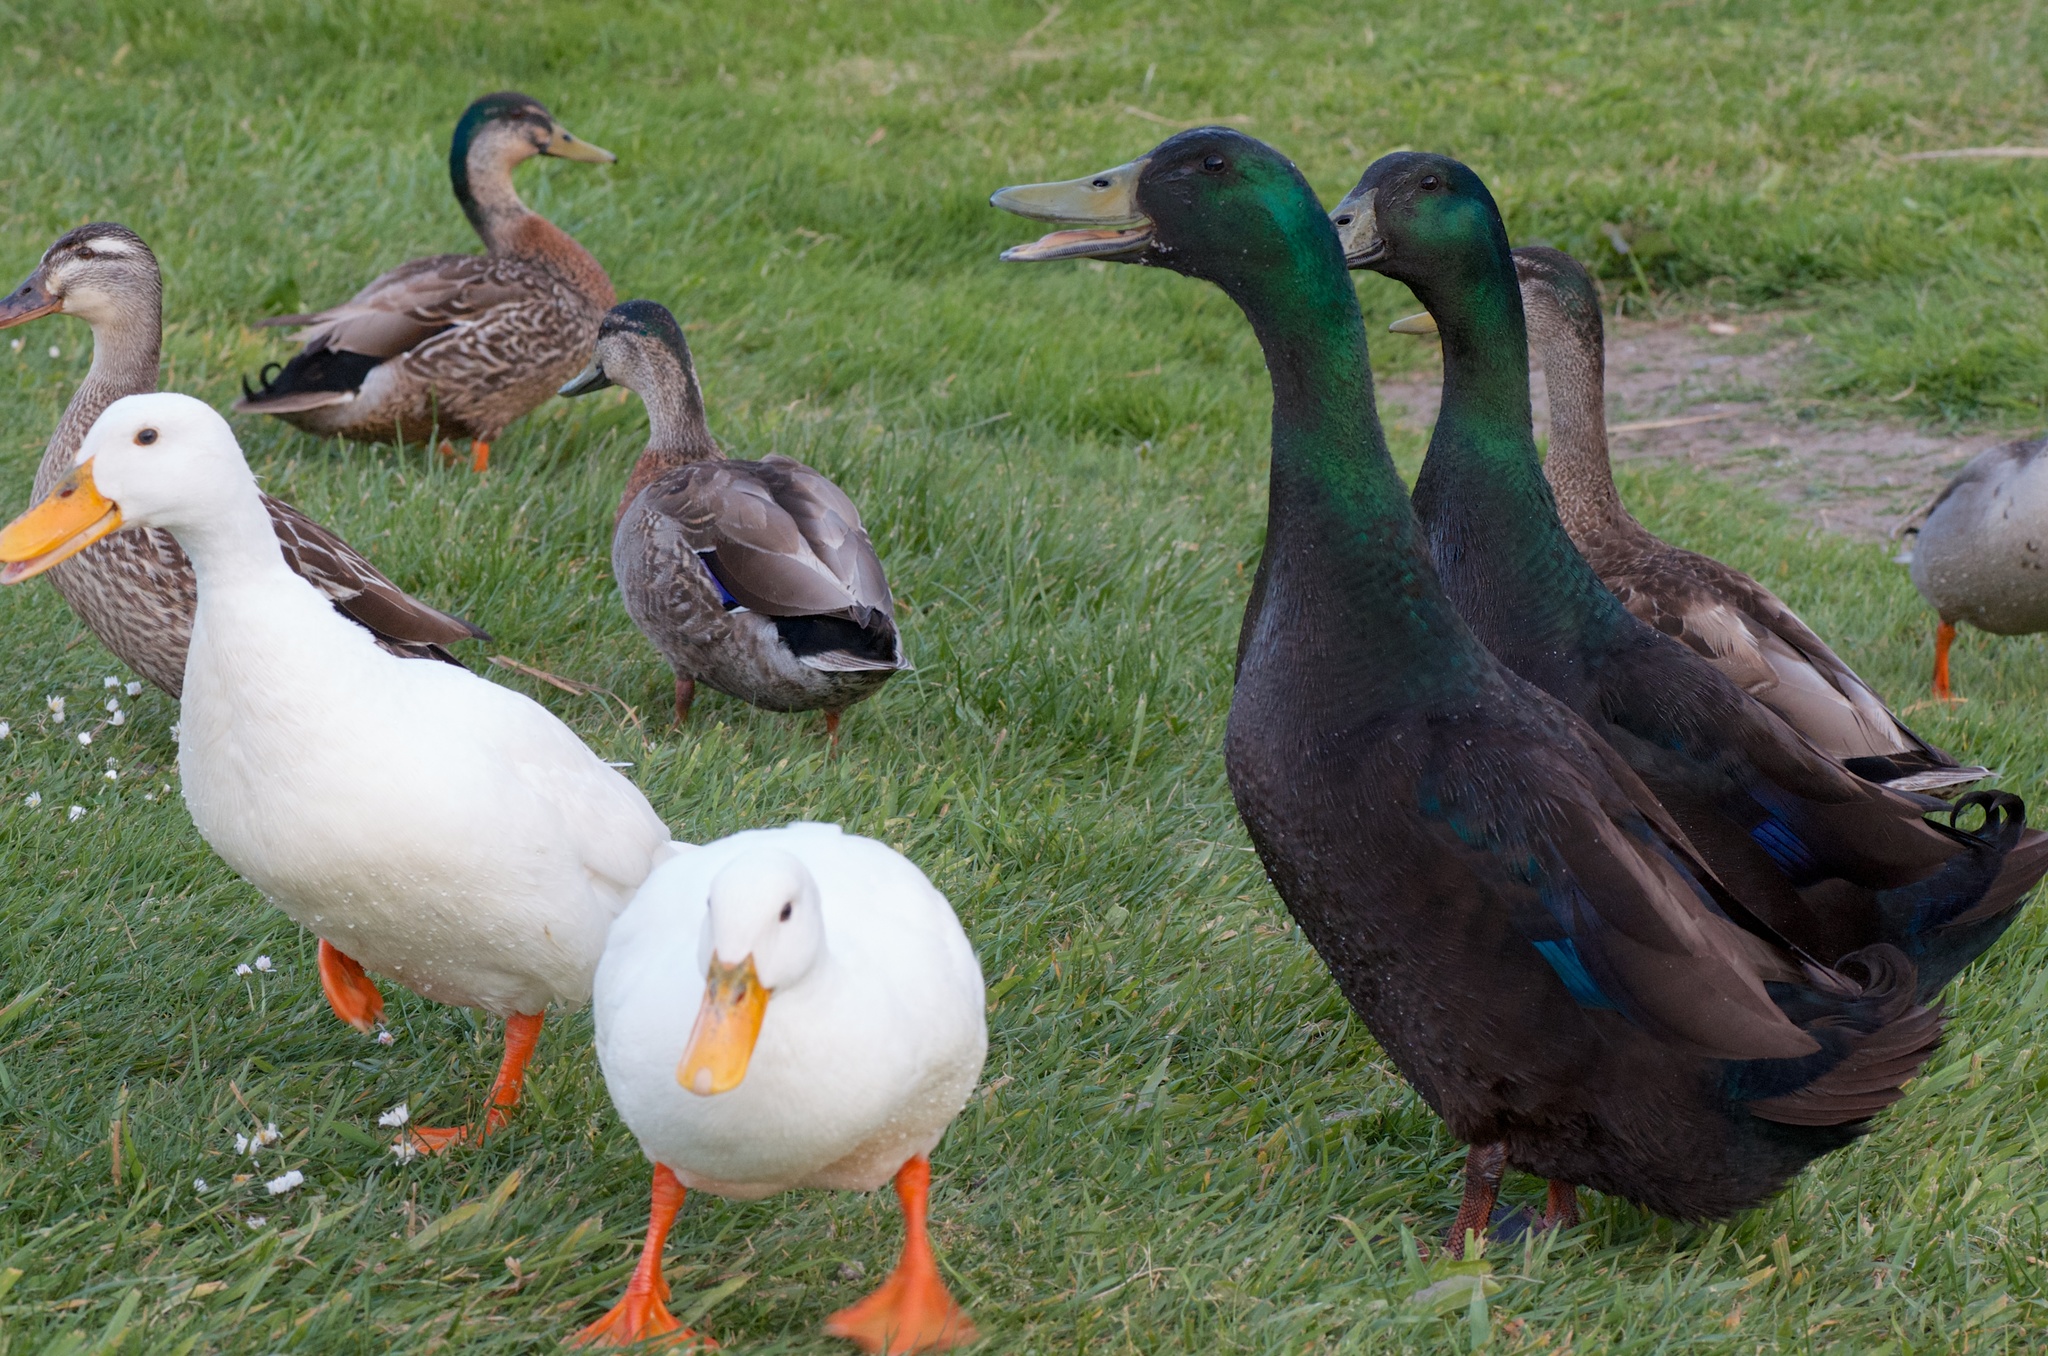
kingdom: Animalia
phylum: Chordata
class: Aves
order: Anseriformes
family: Anatidae
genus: Anas
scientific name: Anas platyrhynchos
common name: Mallard
